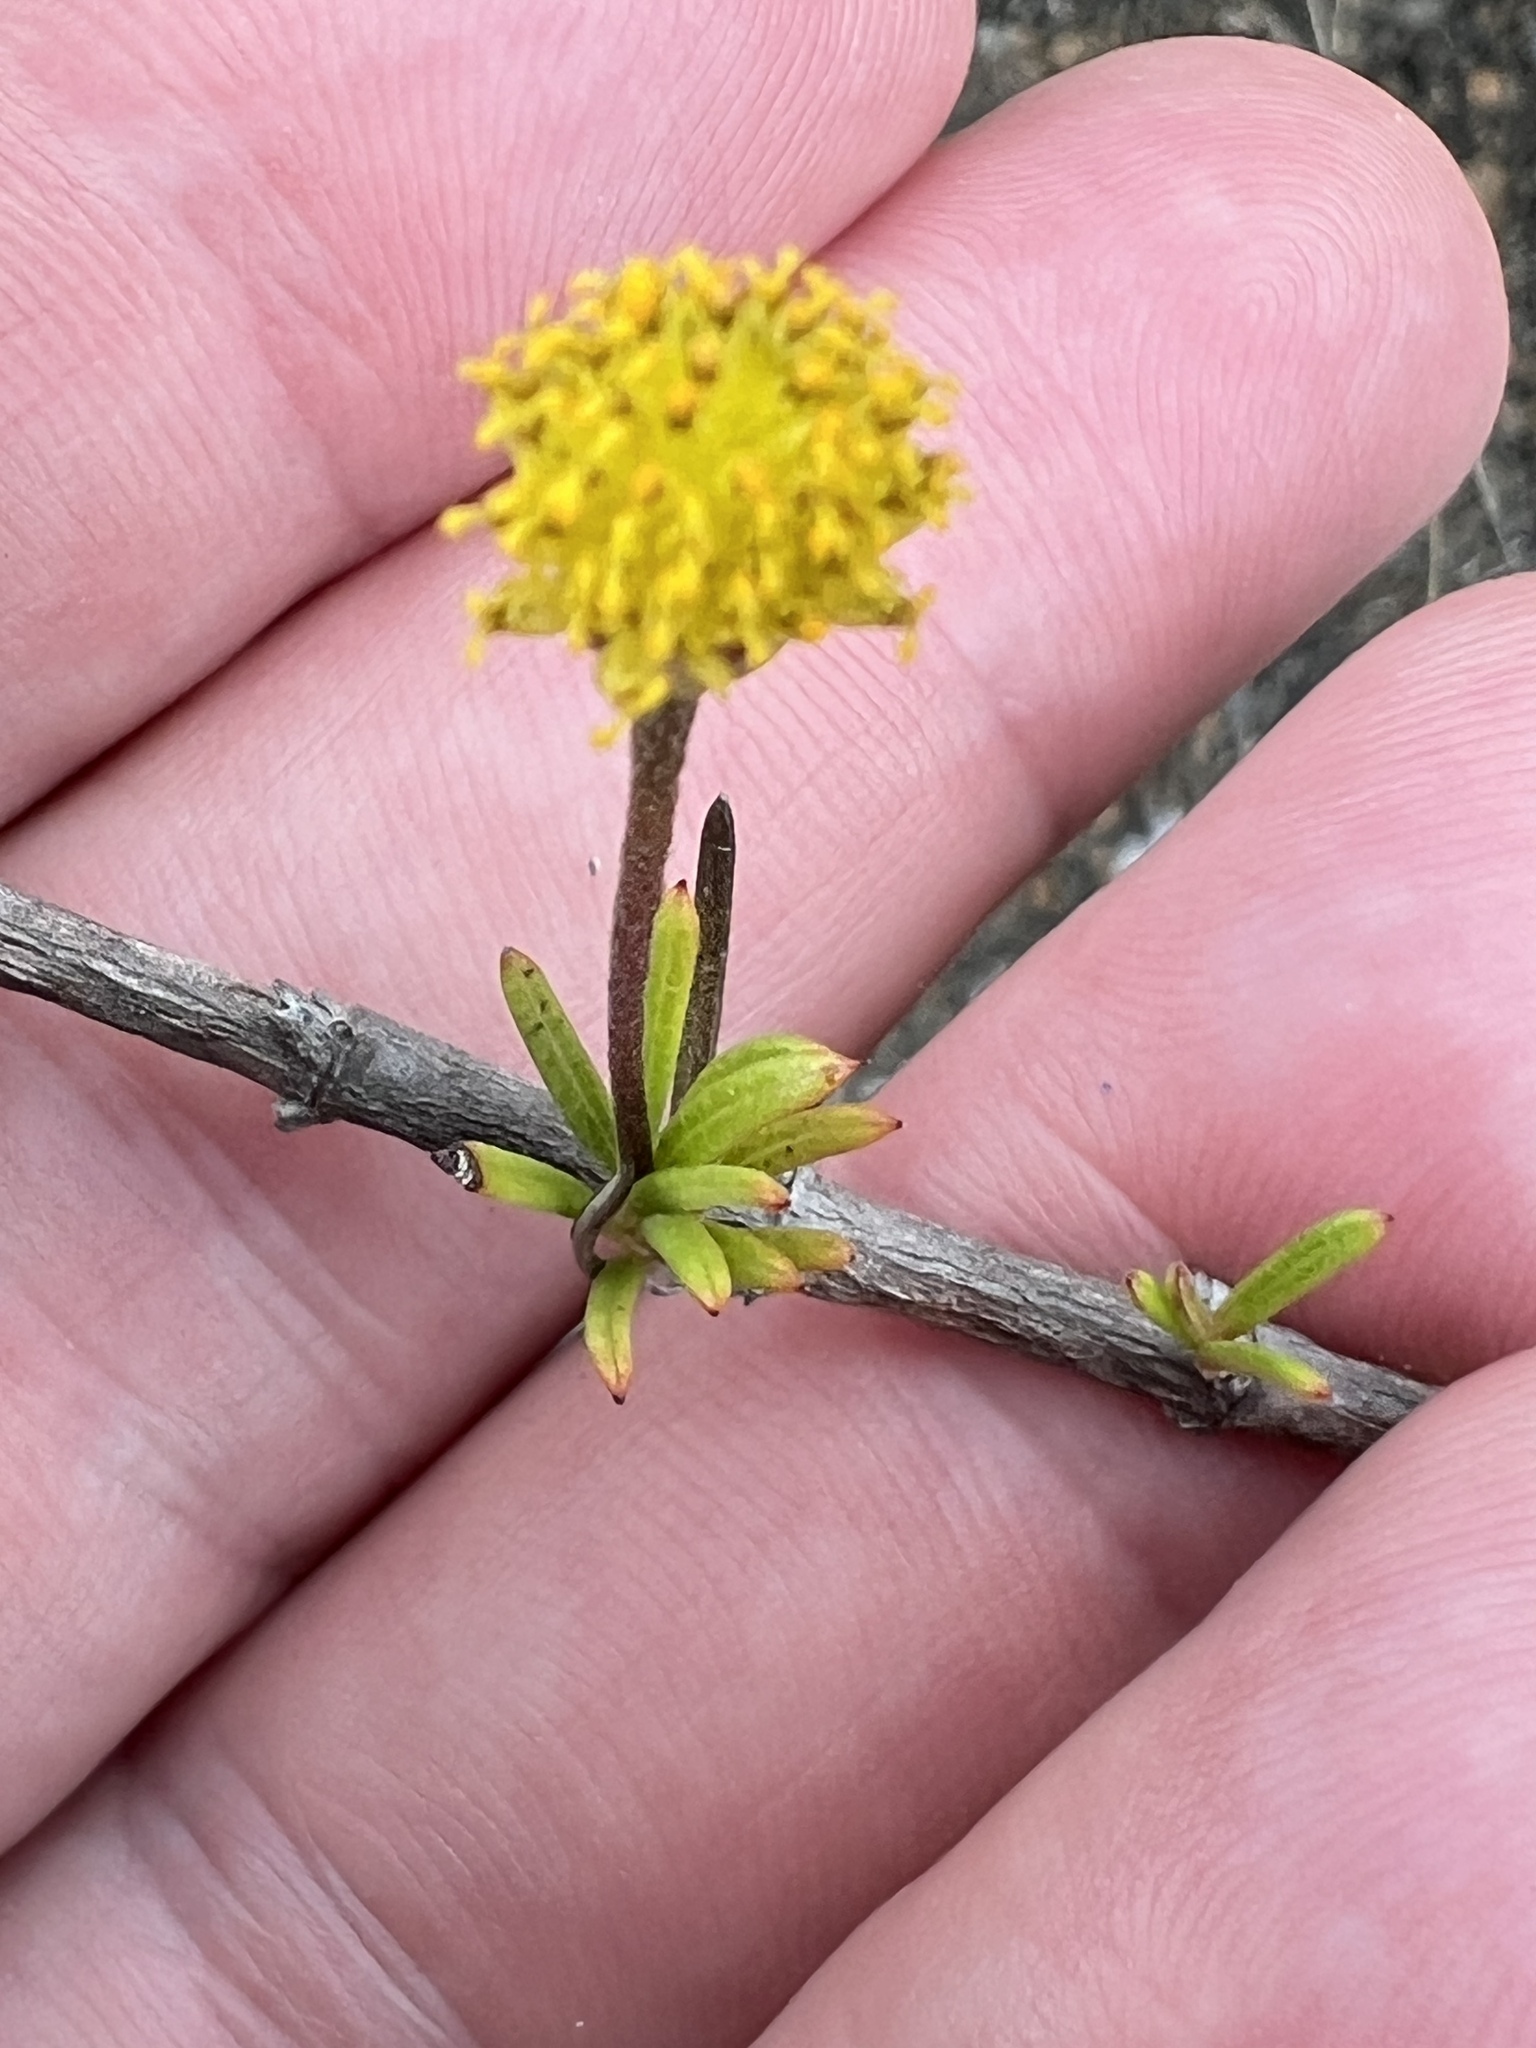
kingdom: Plantae
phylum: Tracheophyta
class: Magnoliopsida
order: Asterales
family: Asteraceae
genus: Trigonopterum
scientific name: Trigonopterum laricifolium
